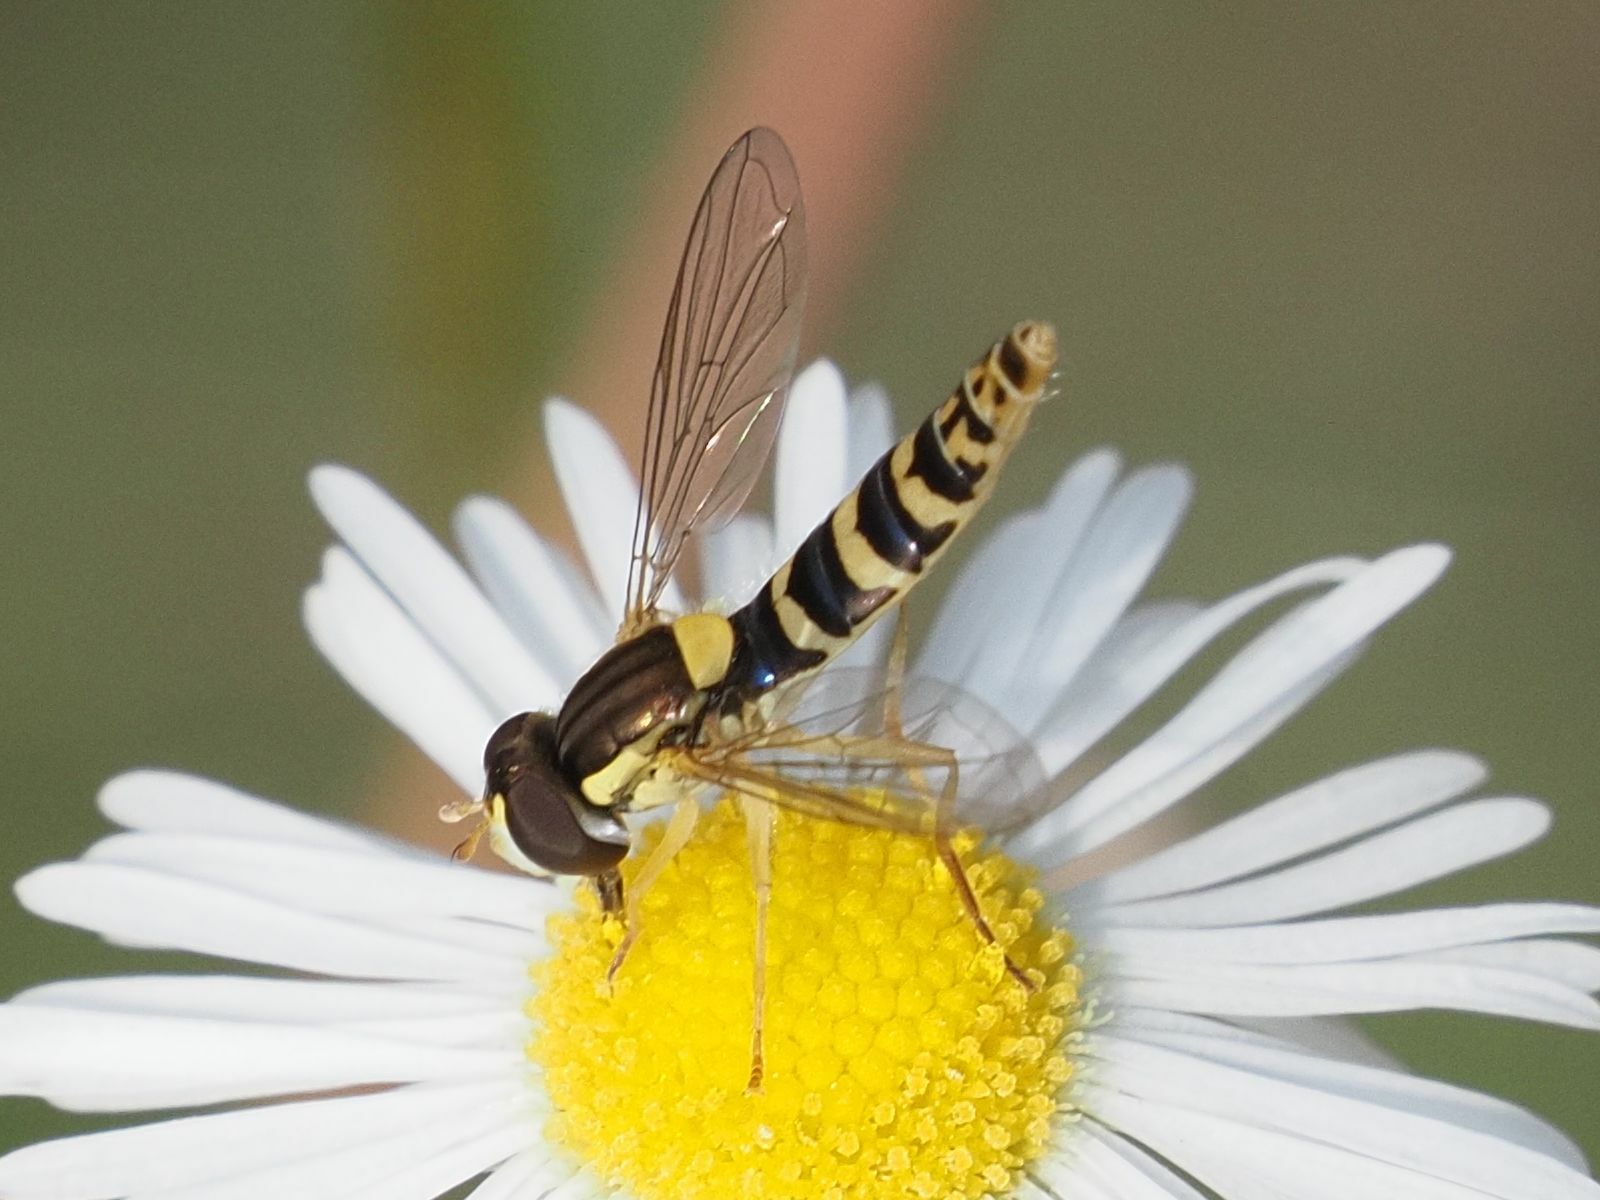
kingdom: Animalia
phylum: Arthropoda
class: Insecta
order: Diptera
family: Syrphidae
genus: Sphaerophoria
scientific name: Sphaerophoria
